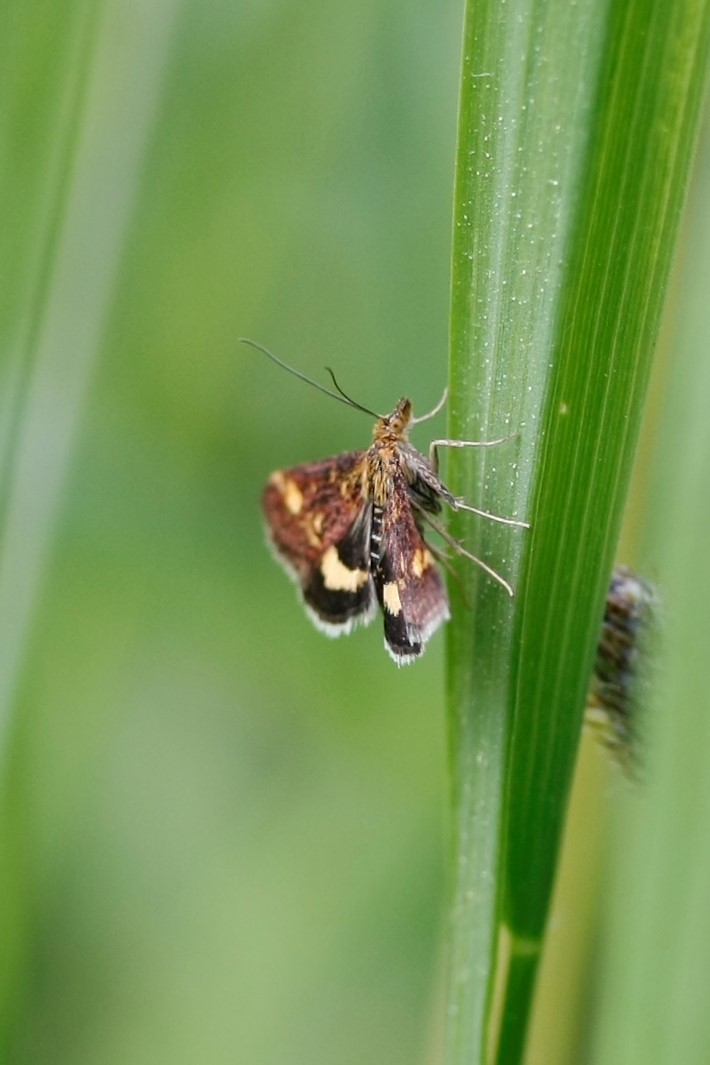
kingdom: Animalia
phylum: Arthropoda
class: Insecta
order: Lepidoptera
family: Crambidae
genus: Pyrausta
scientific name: Pyrausta aurata
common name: Small purple & gold
